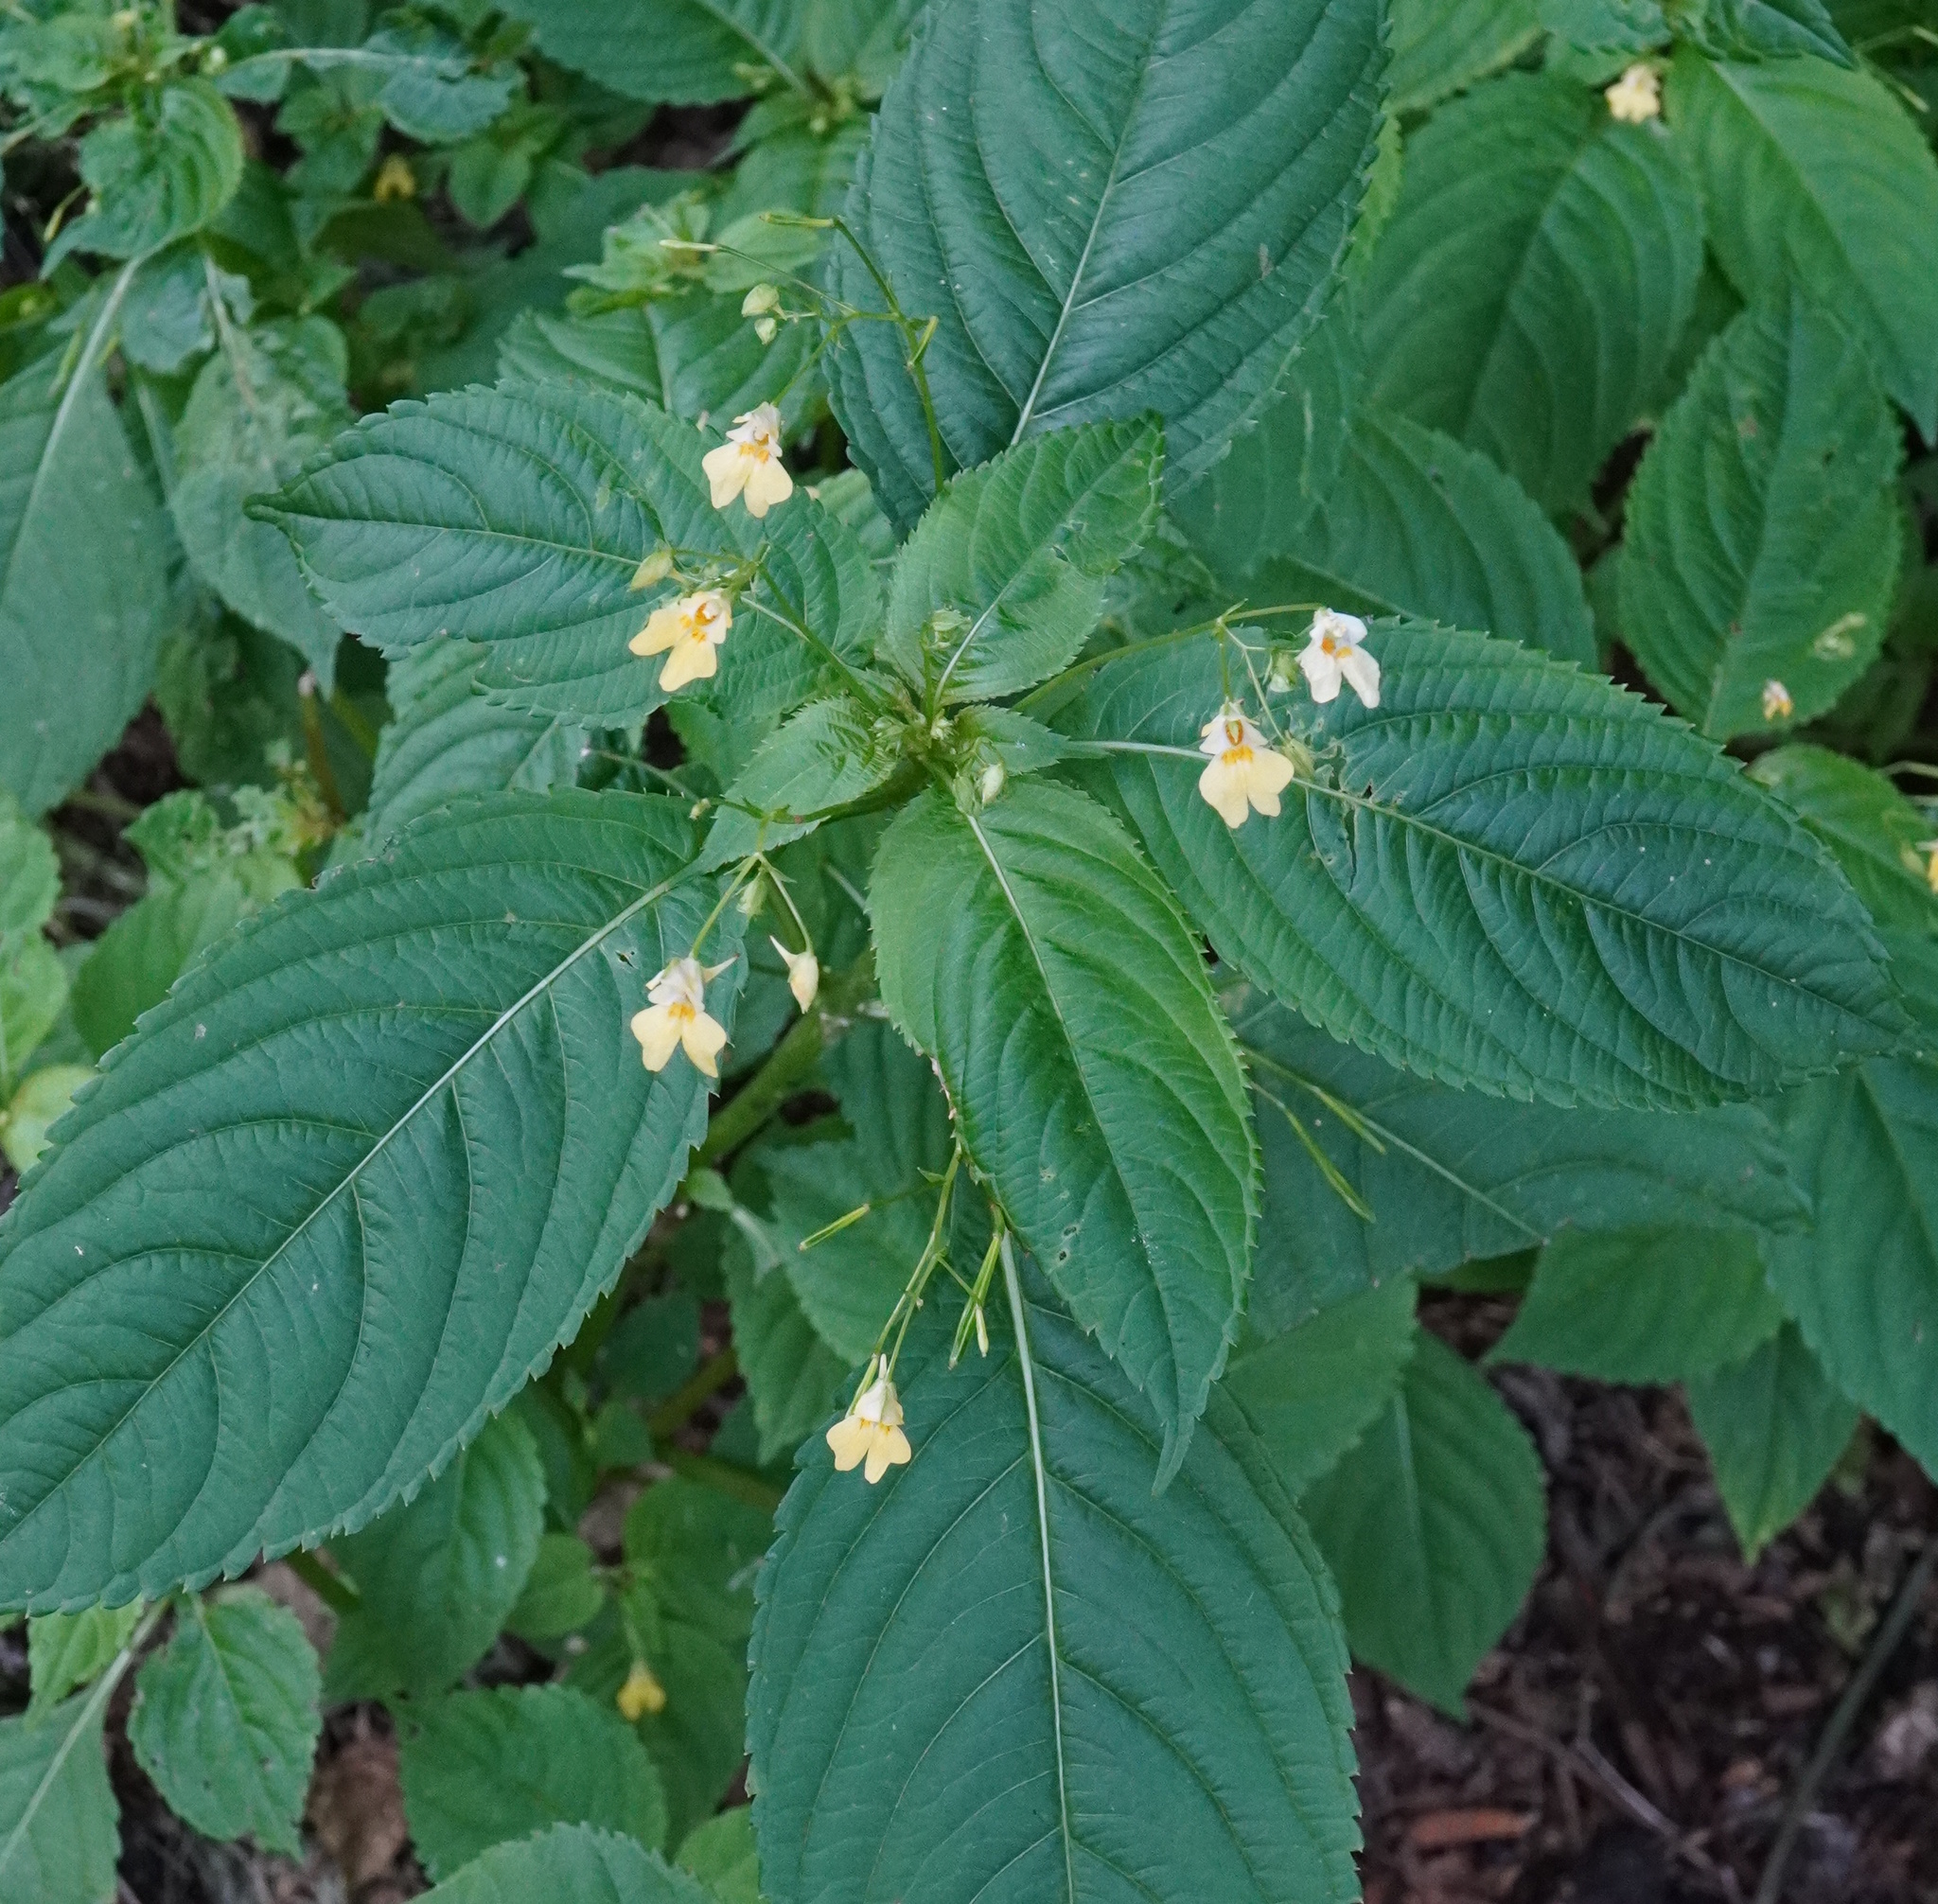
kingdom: Plantae
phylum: Tracheophyta
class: Magnoliopsida
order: Ericales
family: Balsaminaceae
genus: Impatiens
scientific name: Impatiens parviflora
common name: Small balsam
